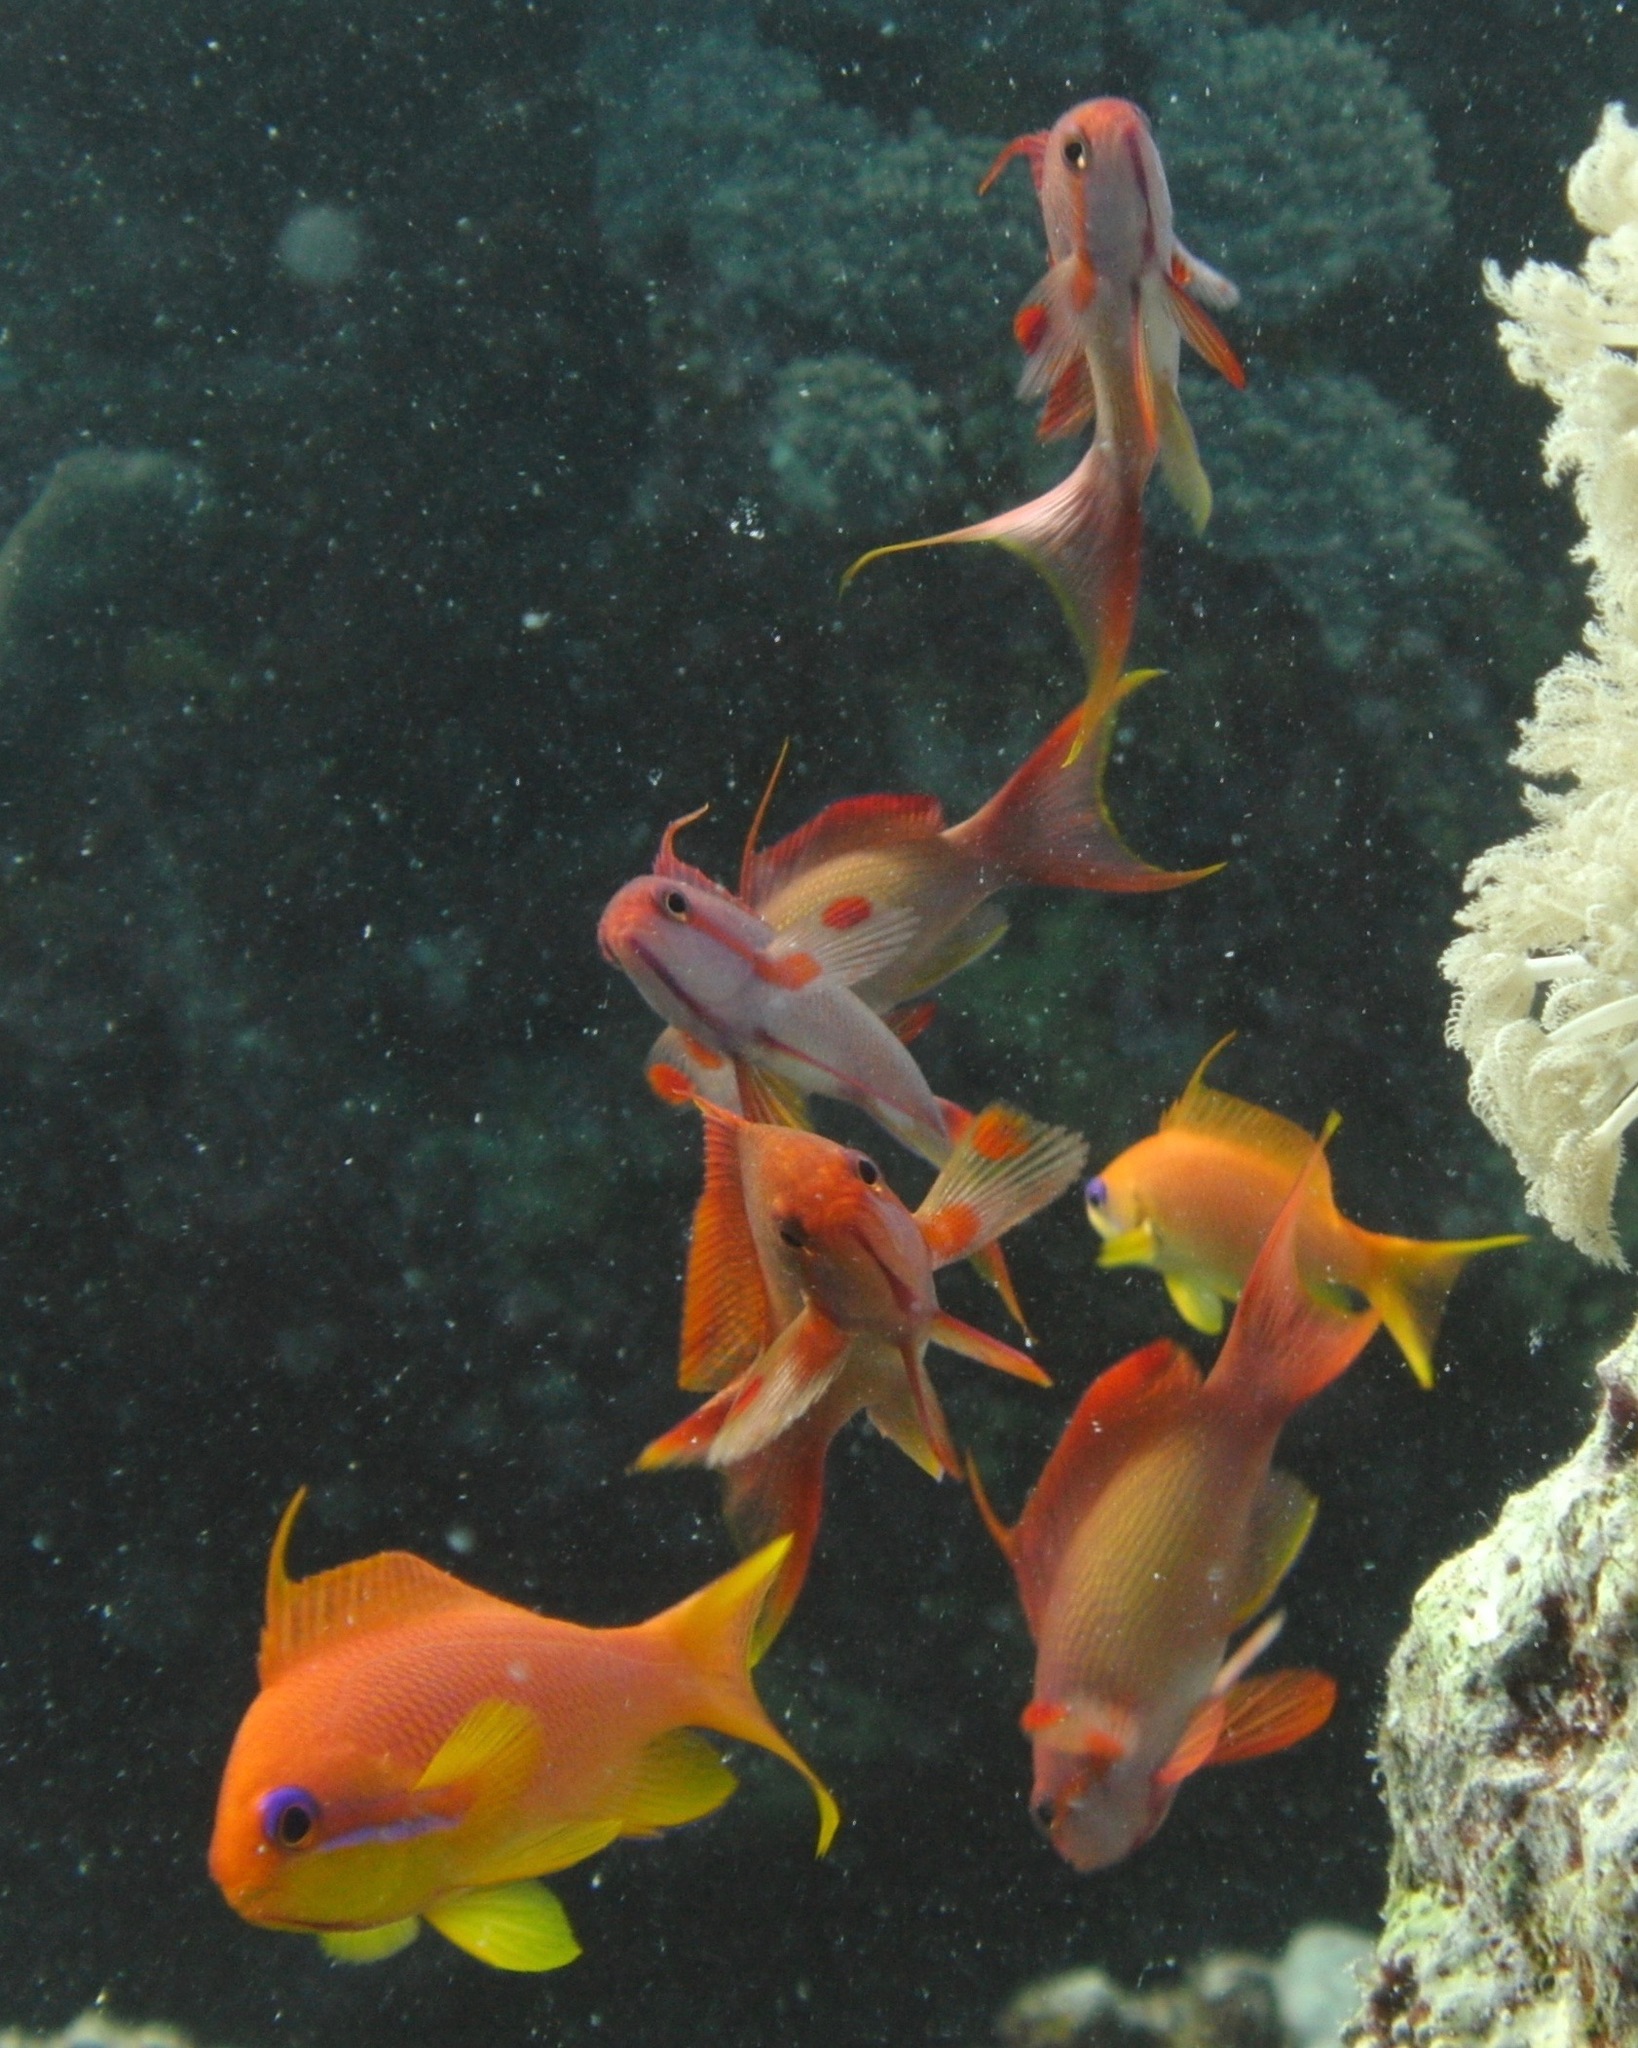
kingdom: Animalia
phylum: Chordata
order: Perciformes
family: Serranidae
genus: Pseudanthias
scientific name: Pseudanthias squamipinnis
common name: Scalefin anthias
